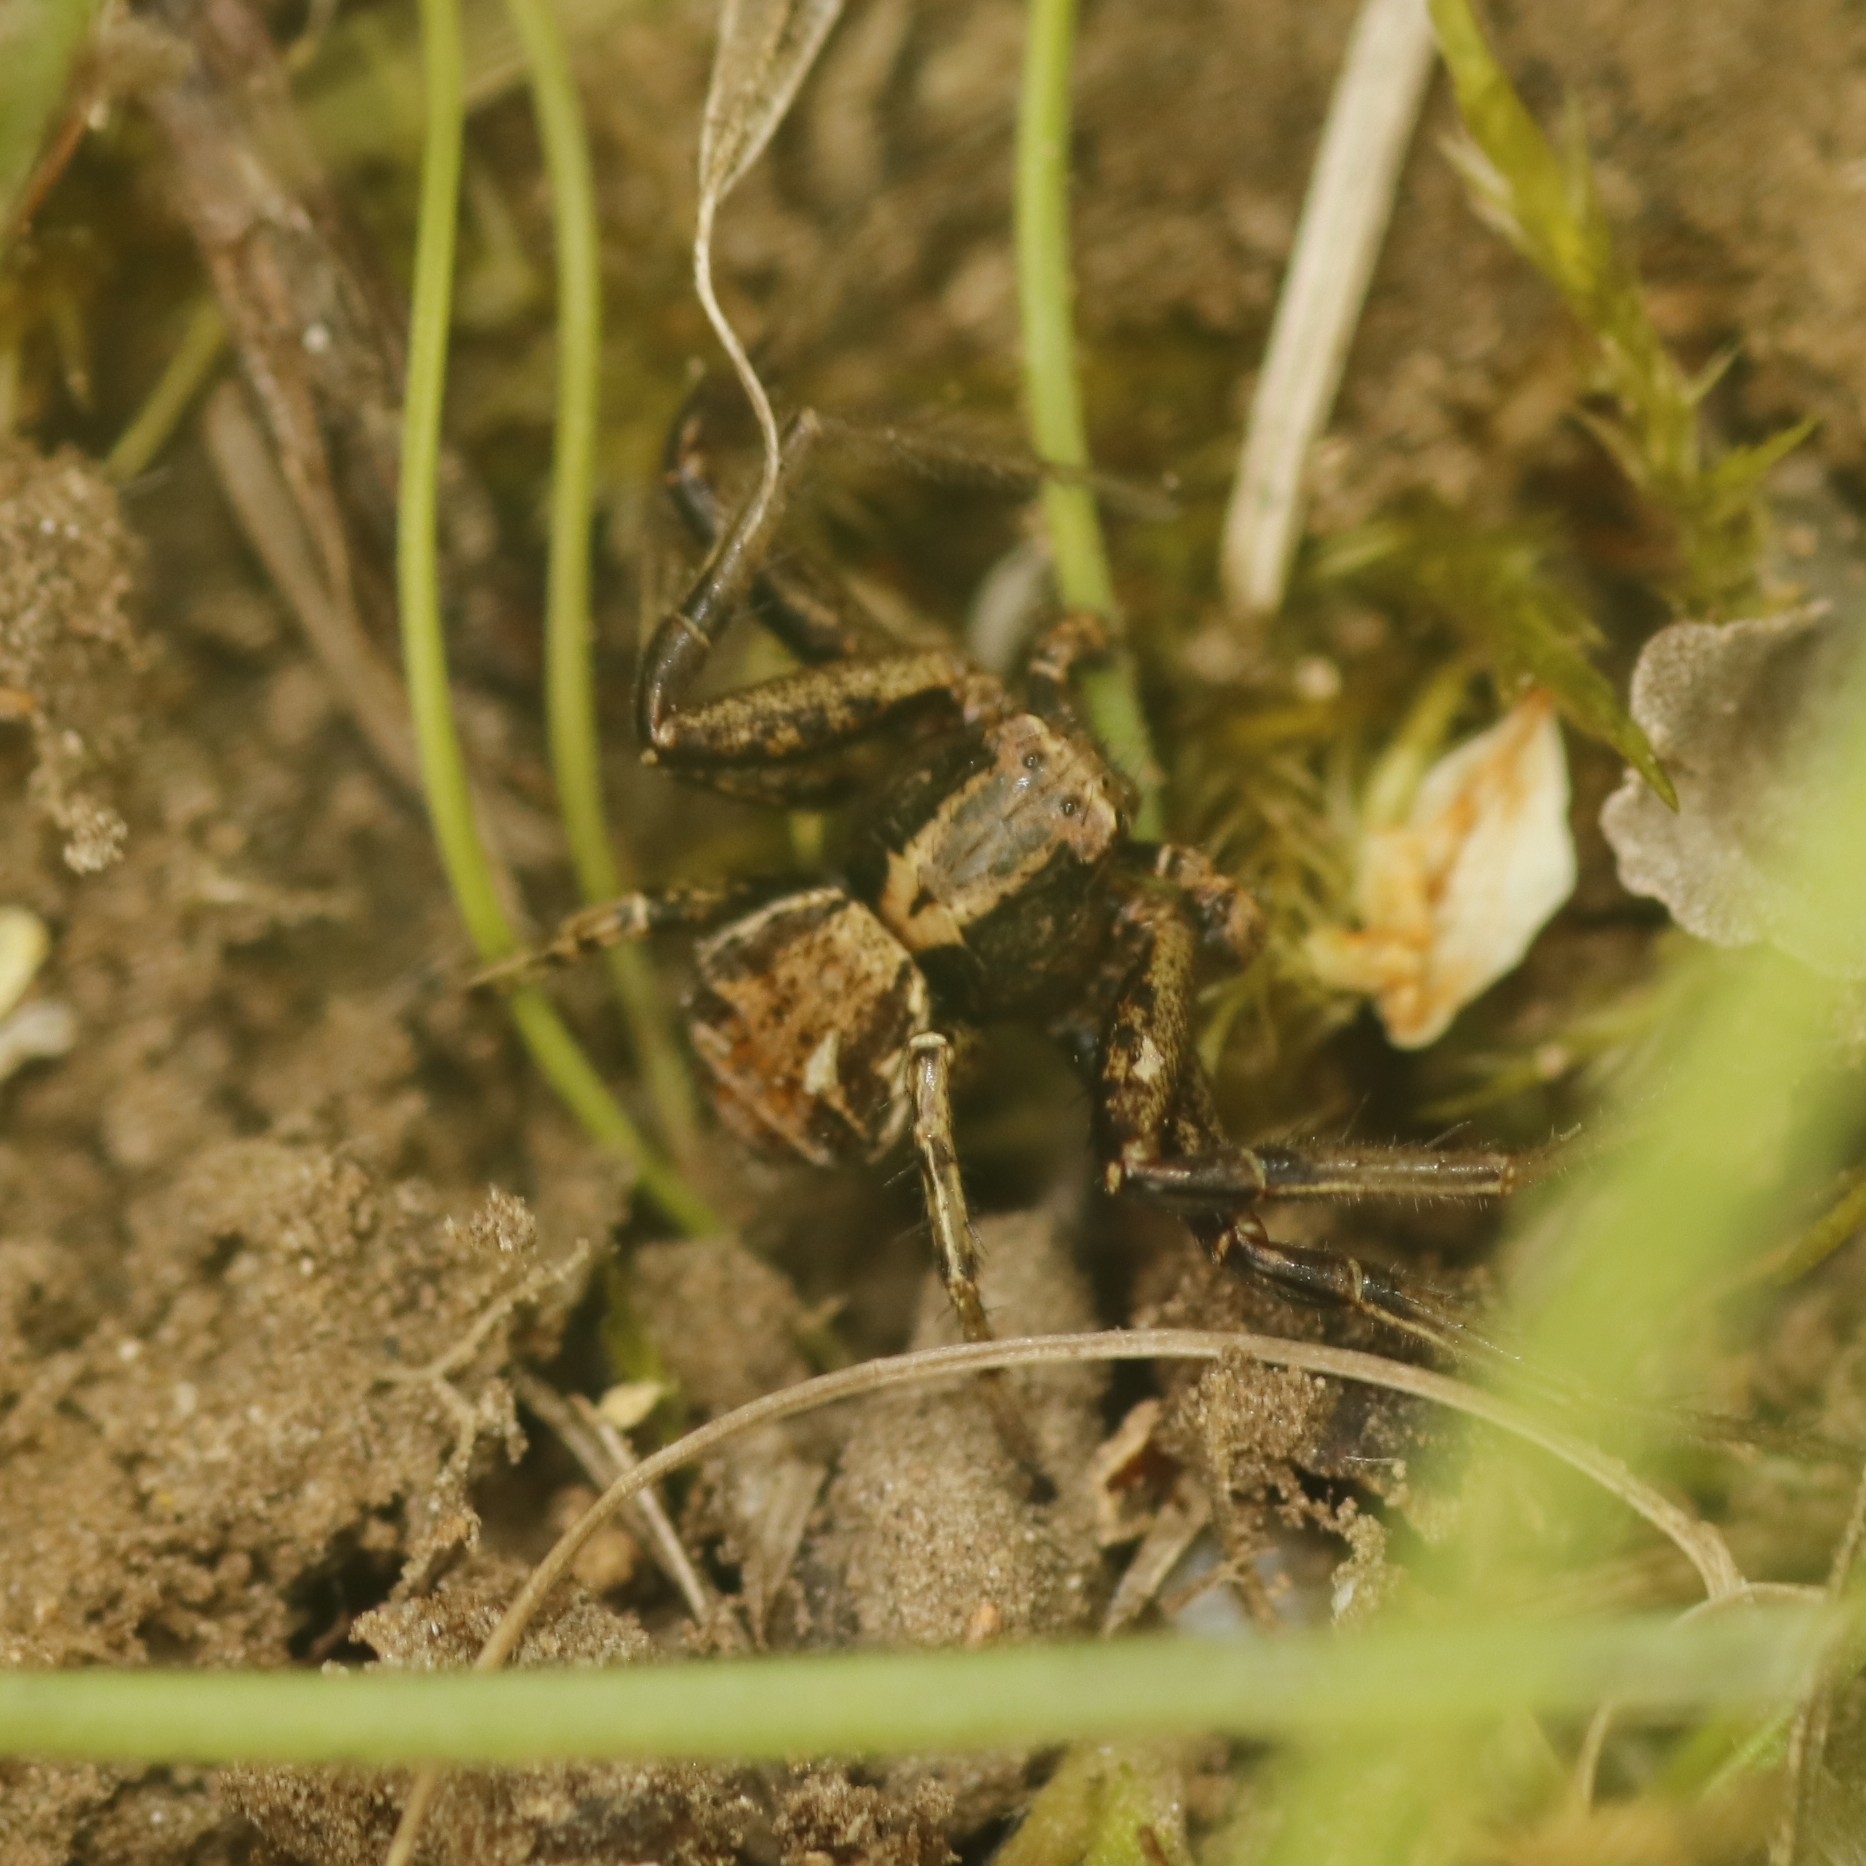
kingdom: Animalia
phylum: Arthropoda
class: Arachnida
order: Araneae
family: Thomisidae
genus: Xysticus
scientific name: Xysticus
